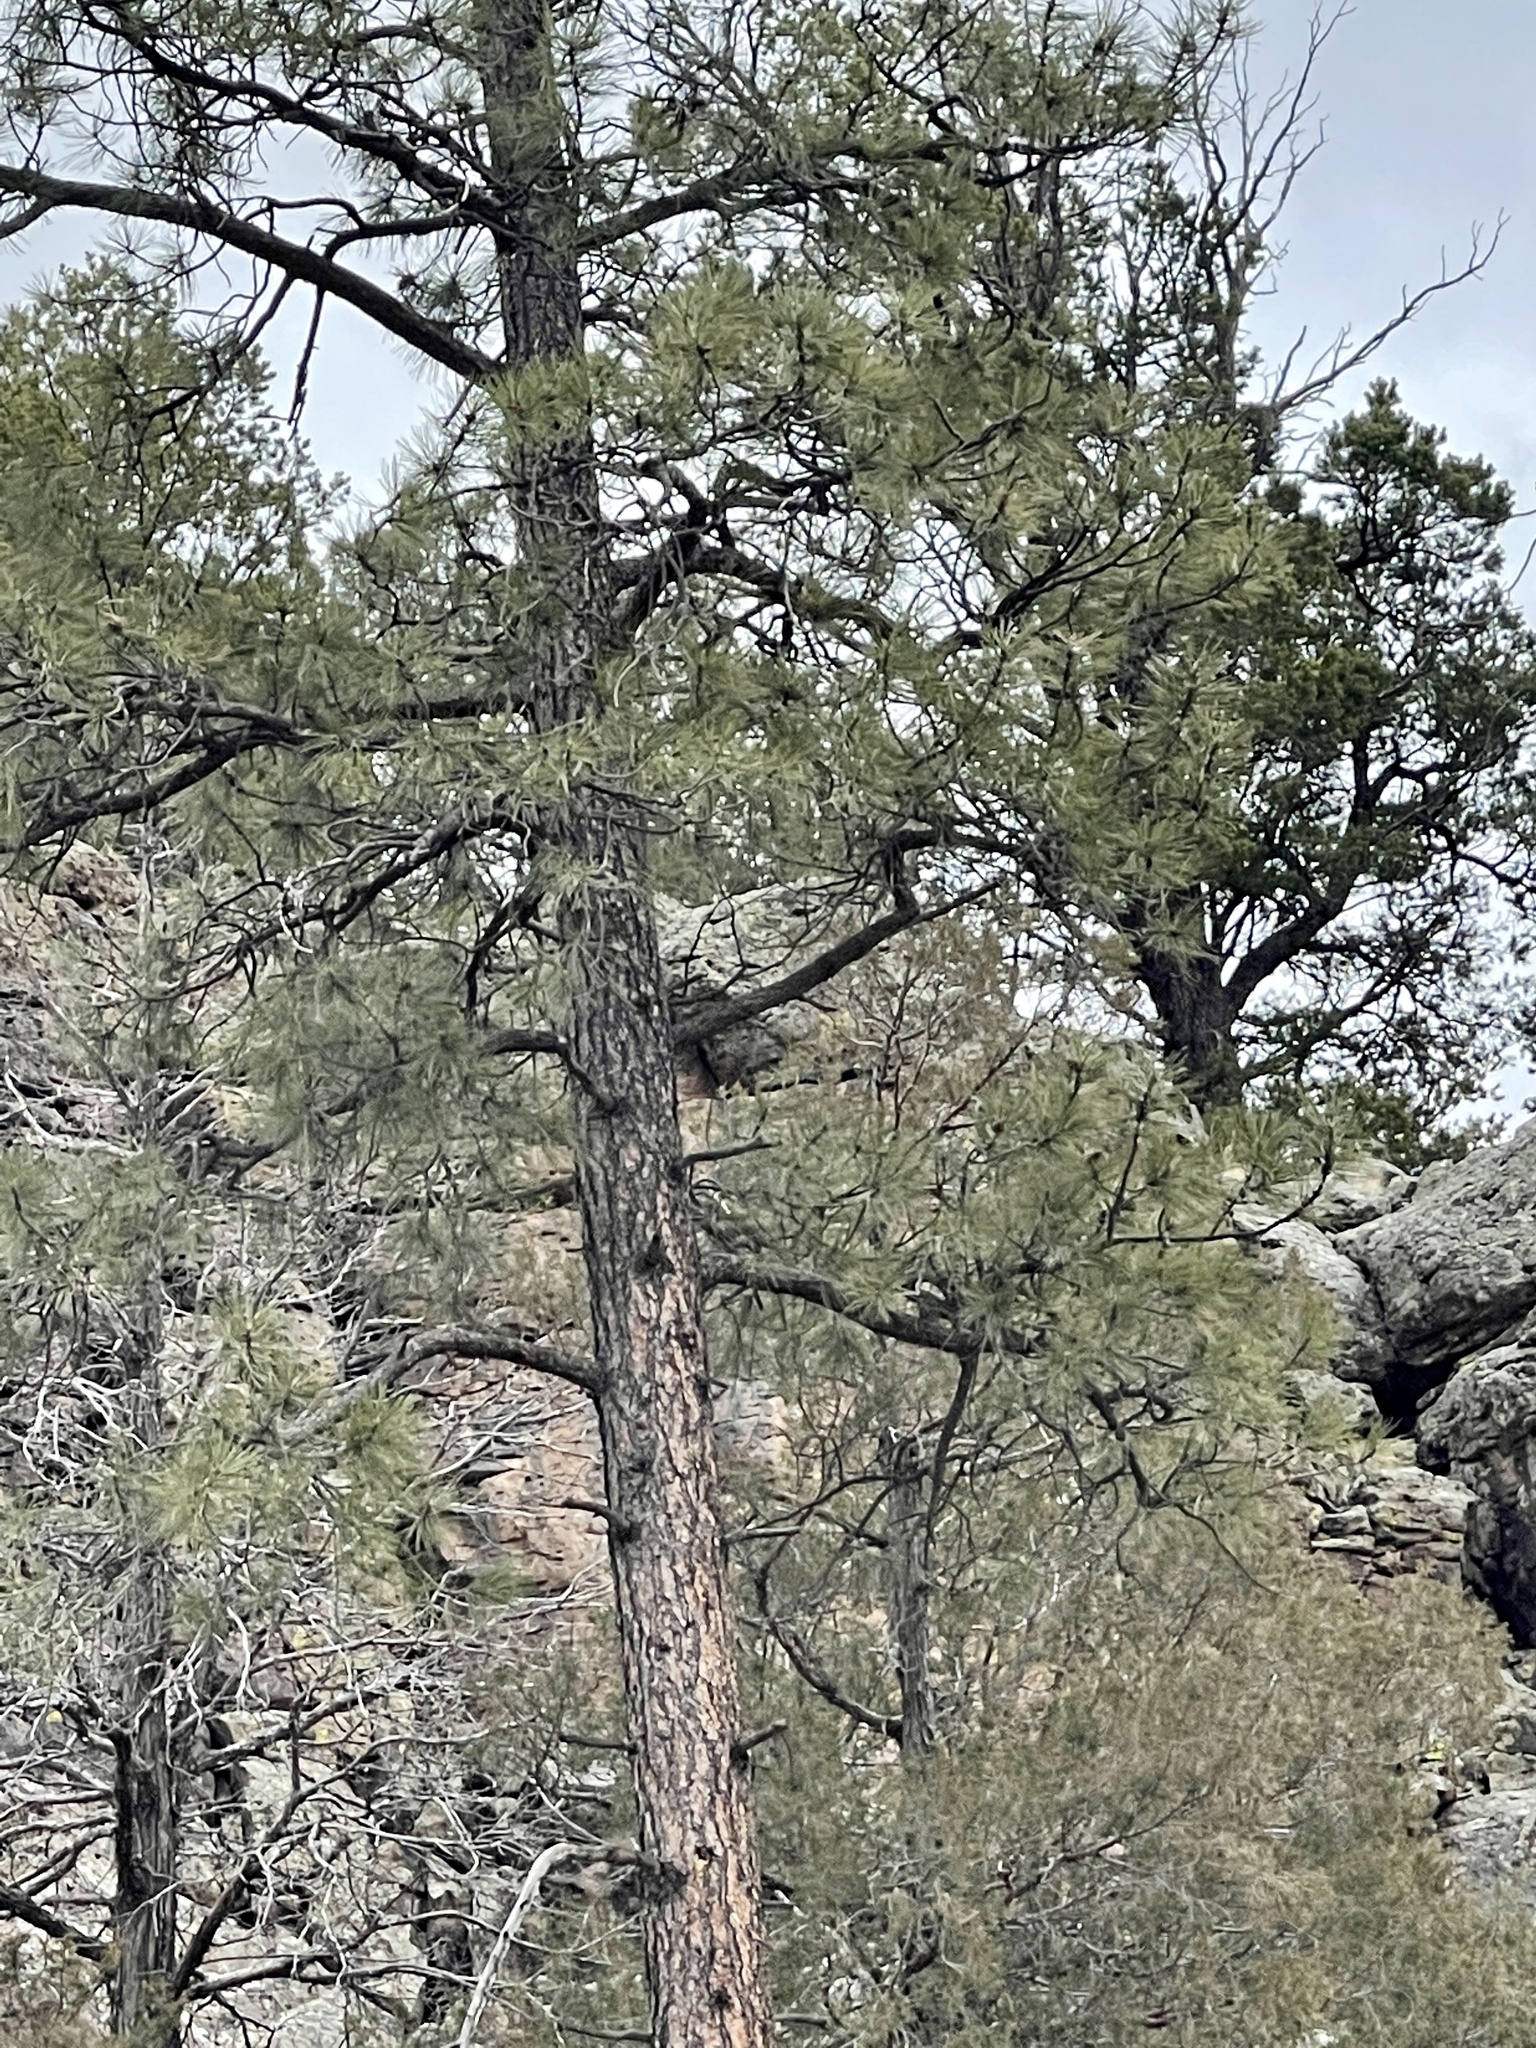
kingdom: Plantae
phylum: Tracheophyta
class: Pinopsida
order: Pinales
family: Pinaceae
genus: Pinus
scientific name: Pinus ponderosa
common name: Western yellow-pine
